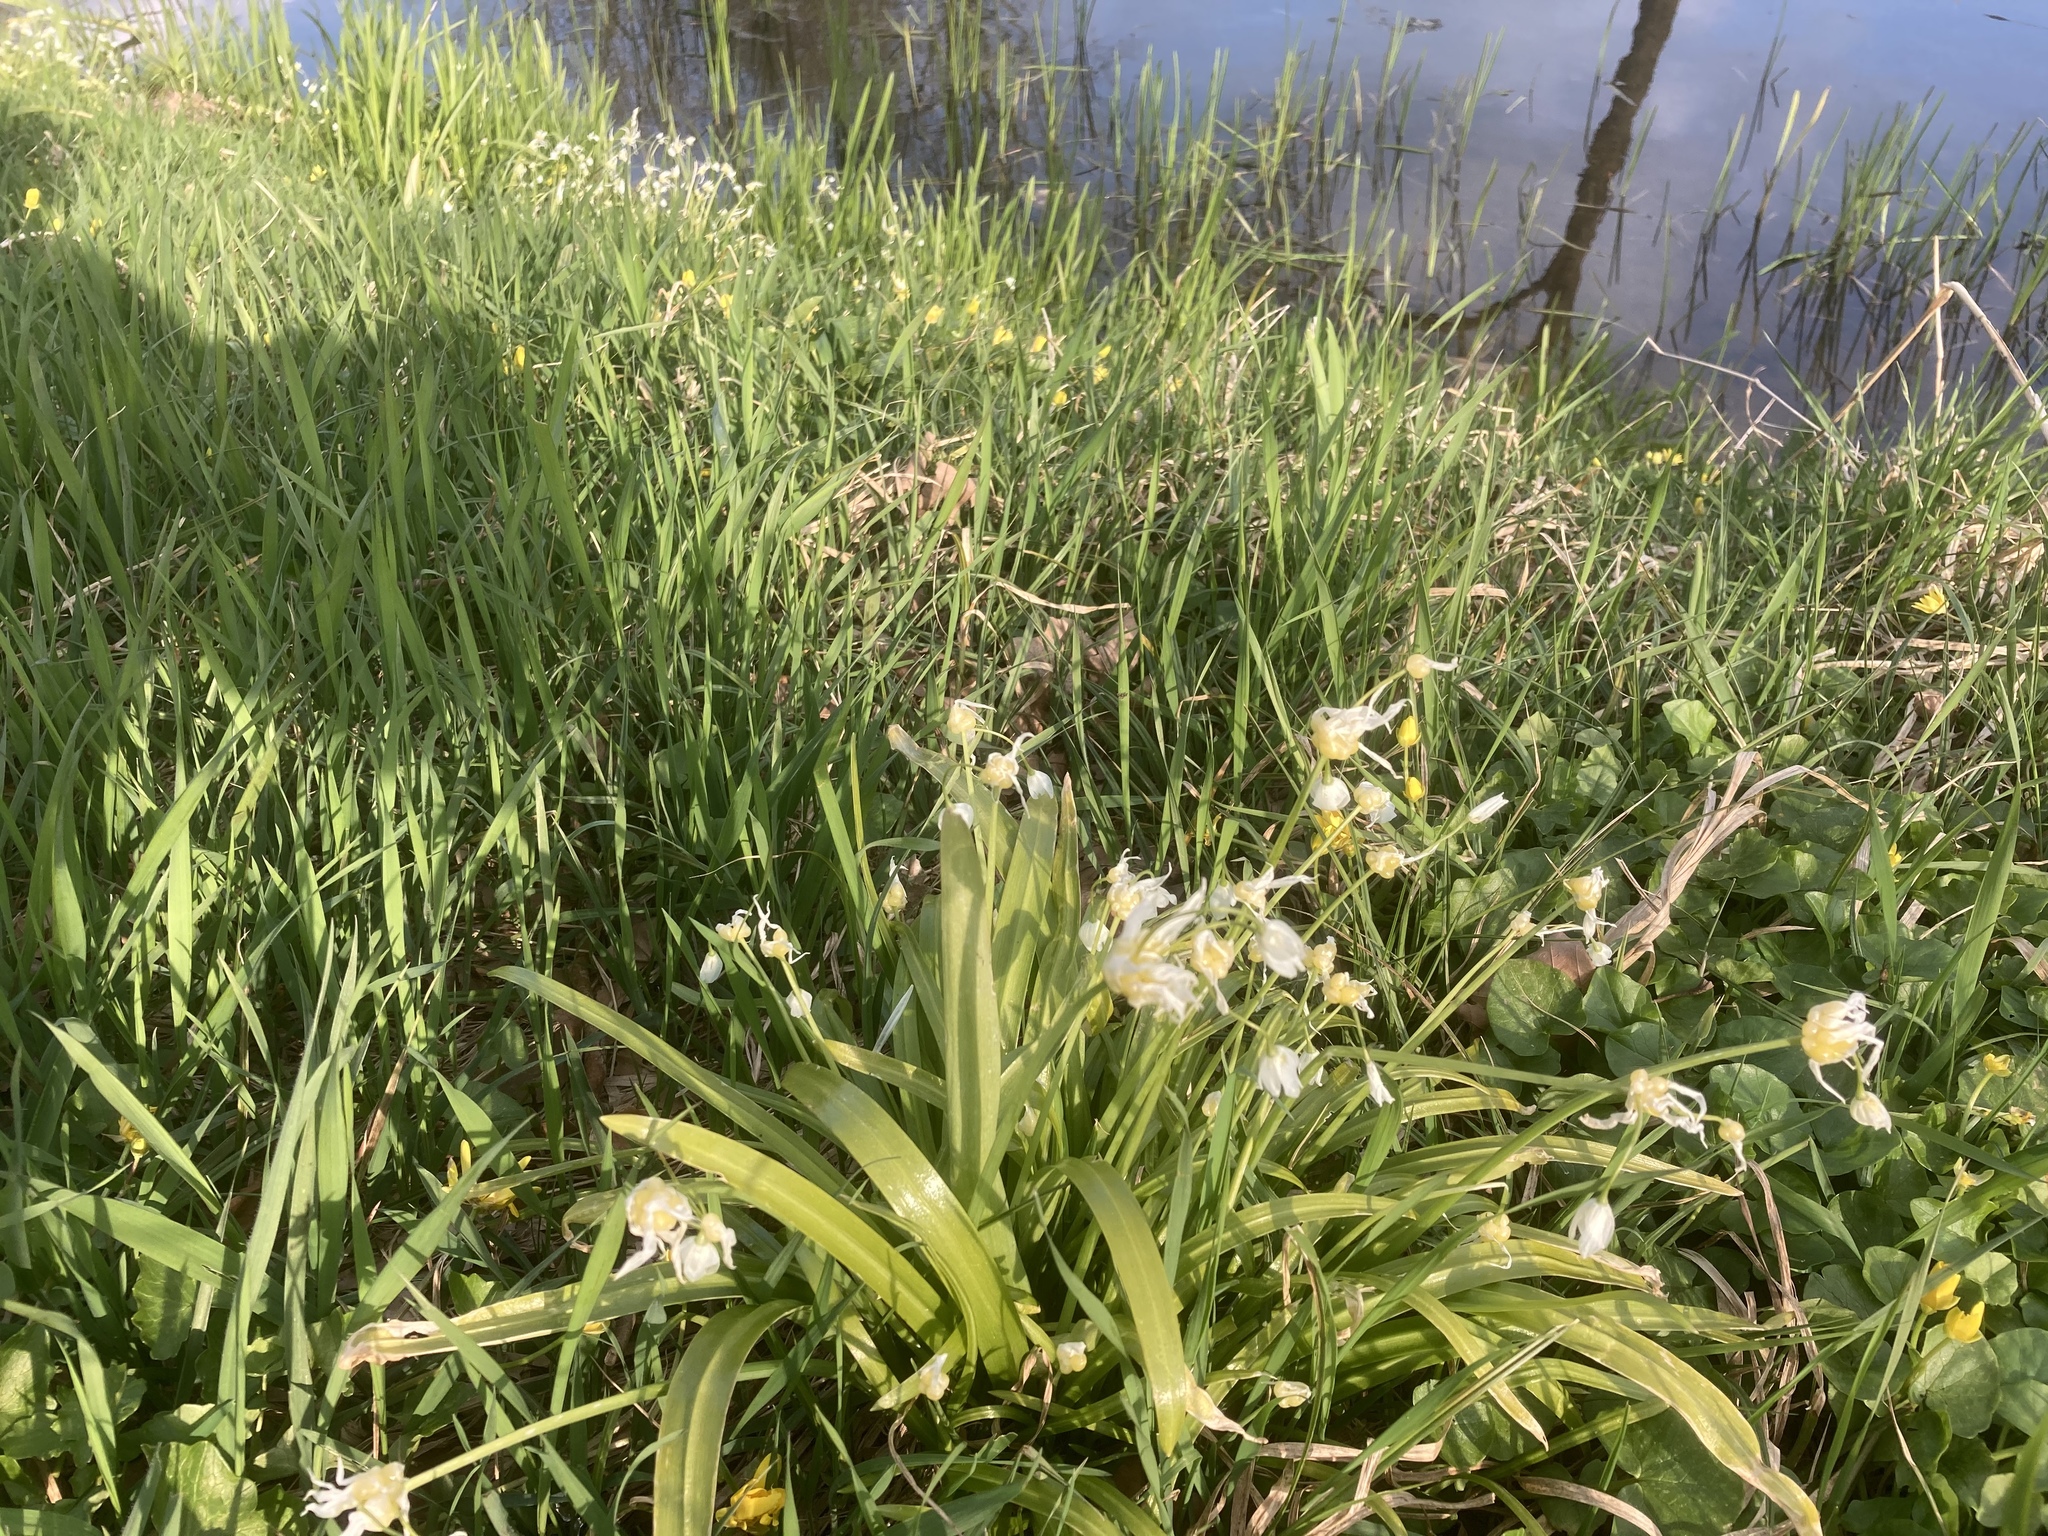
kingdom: Plantae
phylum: Tracheophyta
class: Liliopsida
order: Asparagales
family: Amaryllidaceae
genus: Allium
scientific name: Allium paradoxum
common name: Few-flowered garlic
